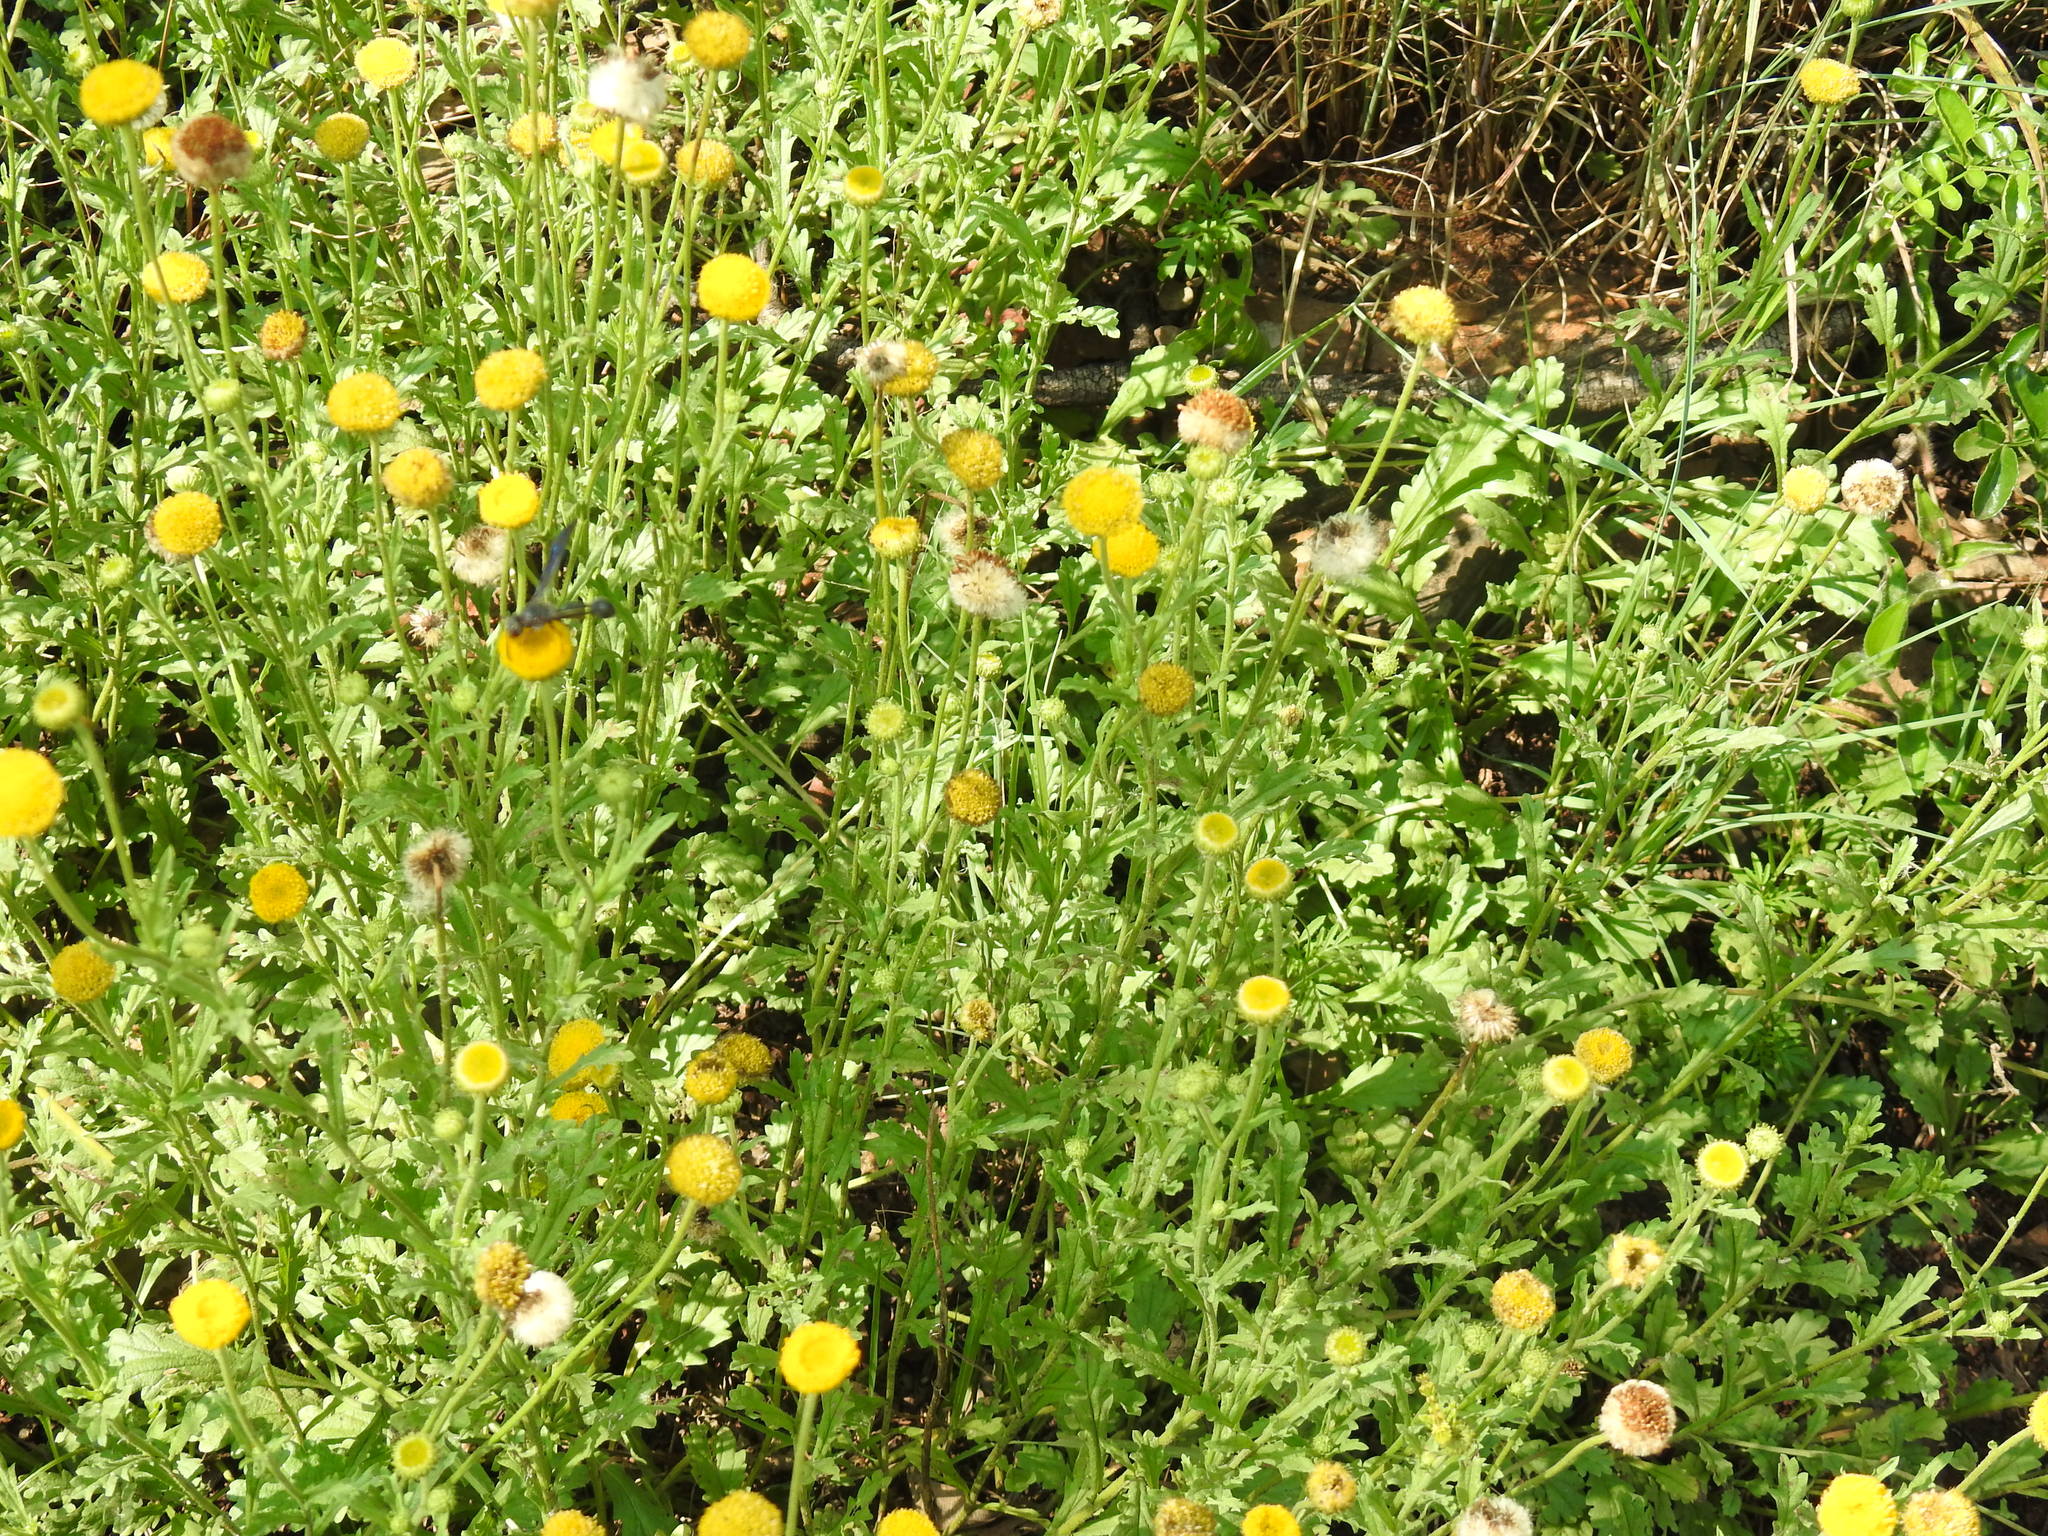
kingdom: Plantae
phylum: Tracheophyta
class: Magnoliopsida
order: Asterales
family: Asteraceae
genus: Nidorella
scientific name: Nidorella podocephala
